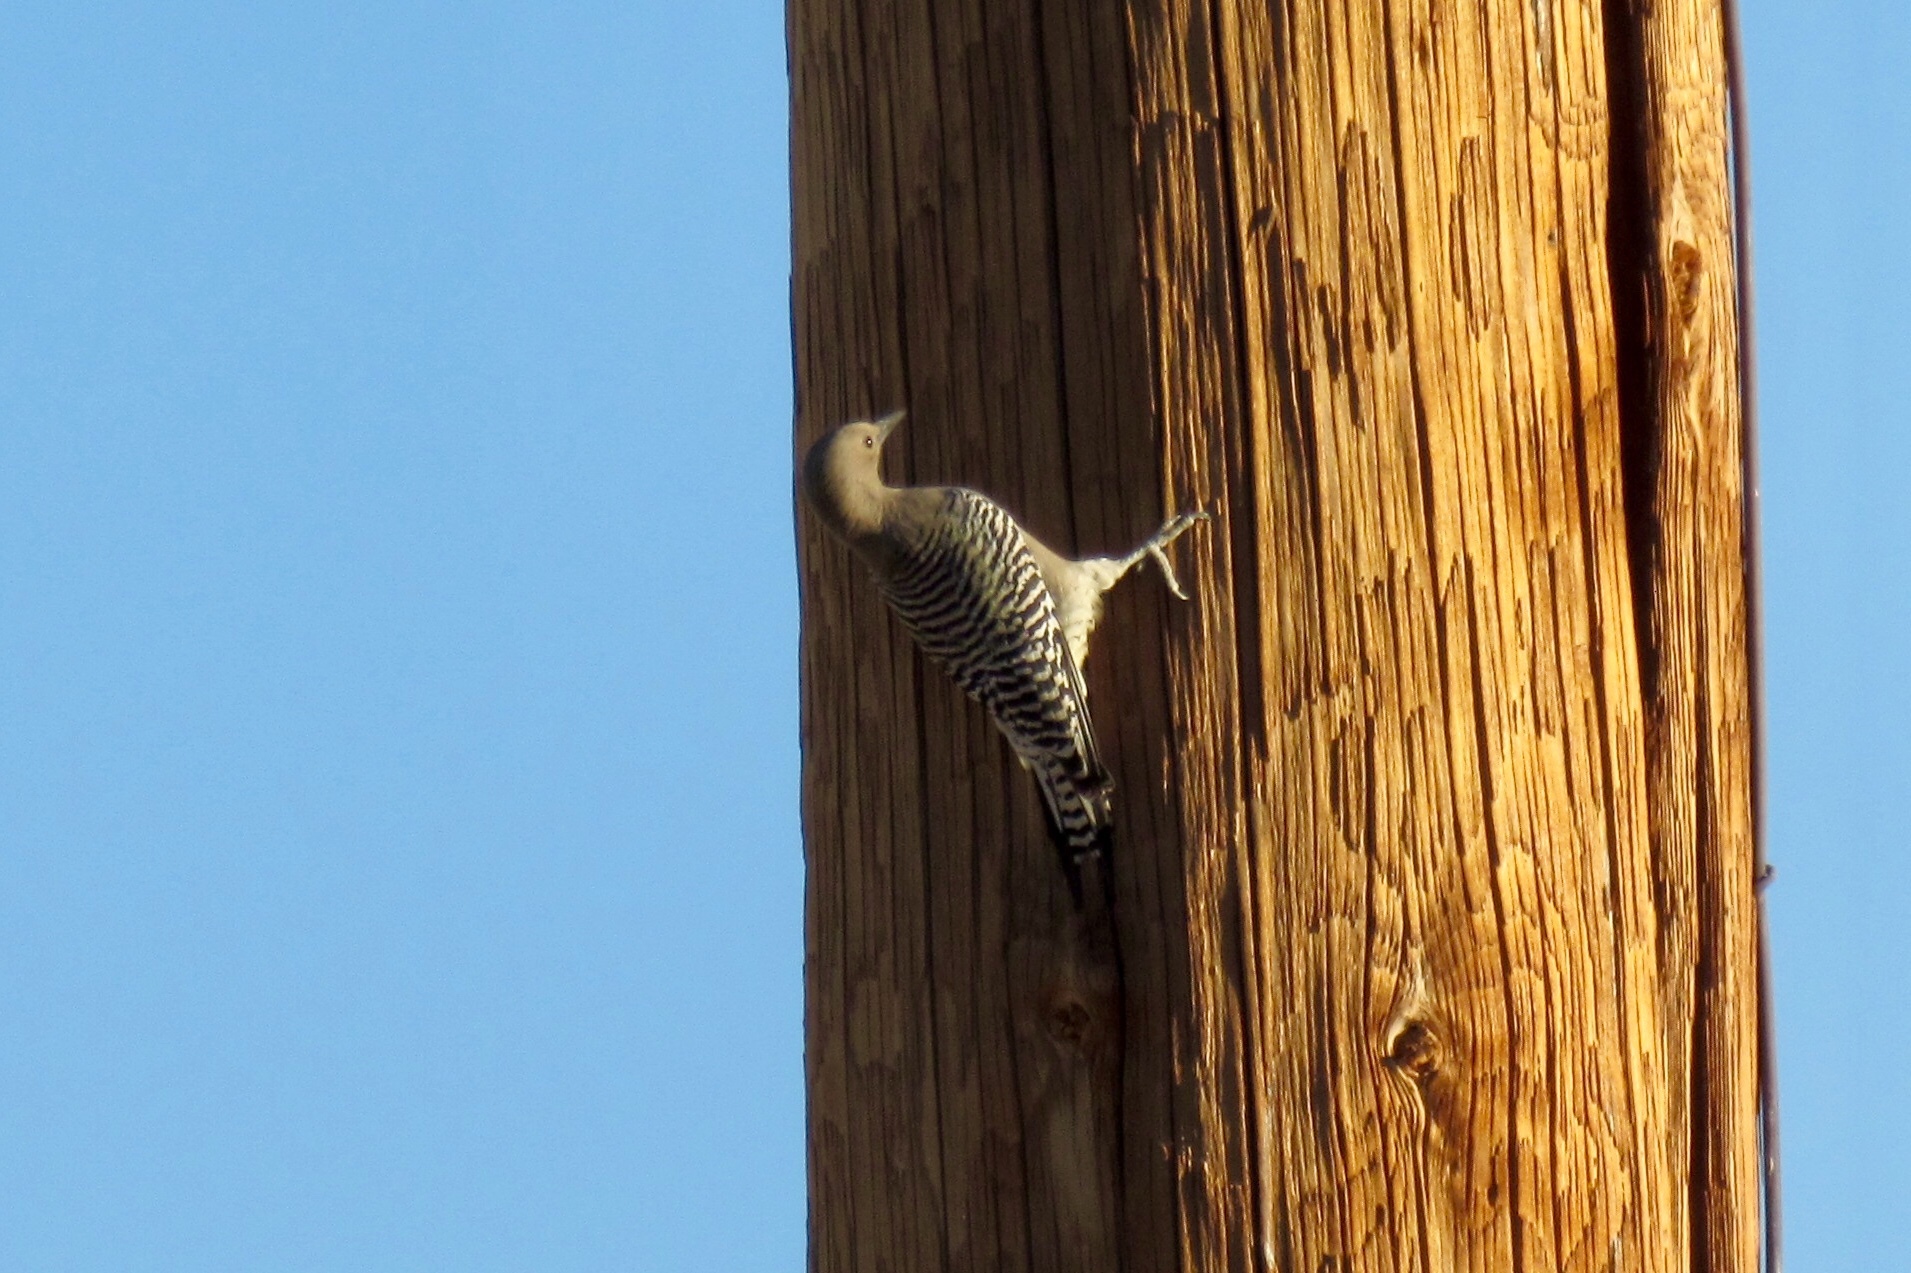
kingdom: Animalia
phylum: Chordata
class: Aves
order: Piciformes
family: Picidae
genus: Melanerpes
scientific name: Melanerpes uropygialis
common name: Gila woodpecker
